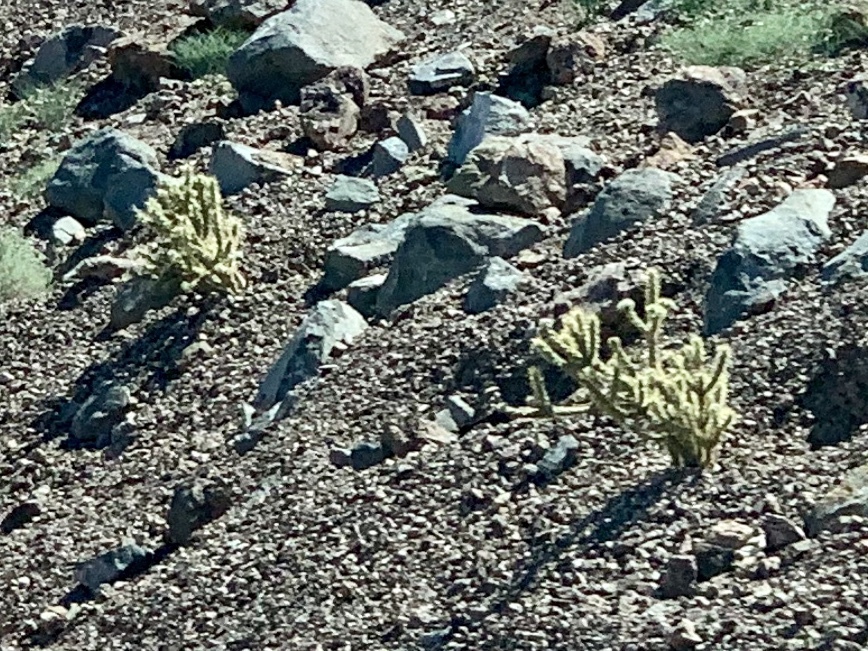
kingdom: Plantae
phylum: Tracheophyta
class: Magnoliopsida
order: Caryophyllales
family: Cactaceae
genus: Cylindropuntia
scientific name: Cylindropuntia acanthocarpa
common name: Buckhorn cholla
